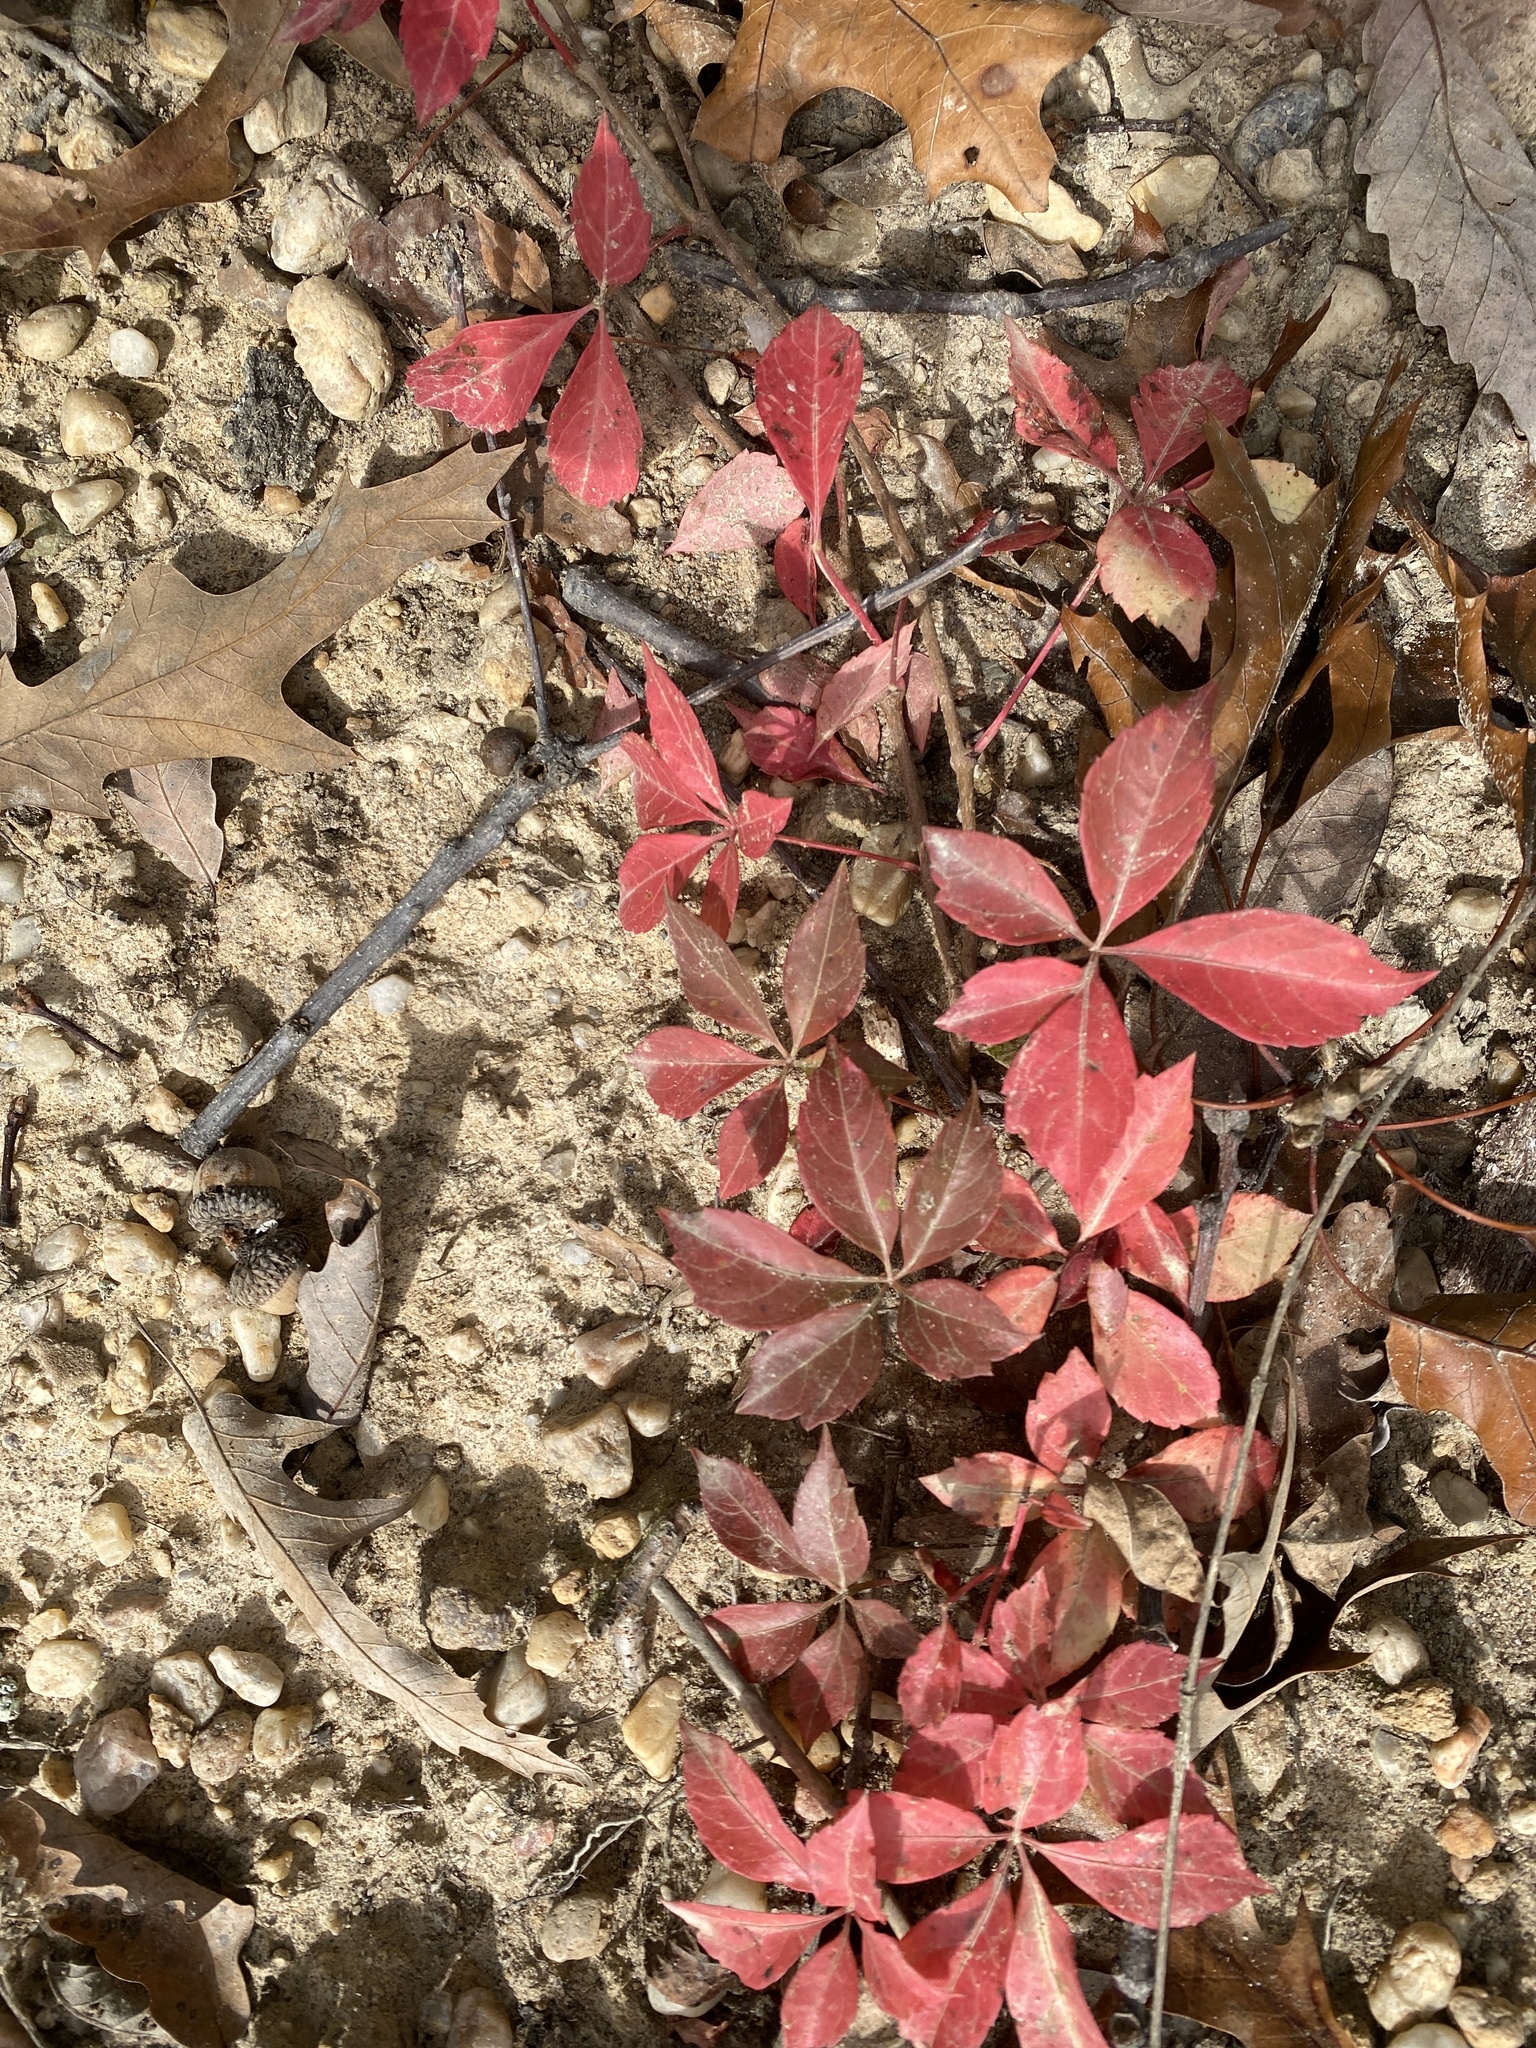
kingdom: Plantae
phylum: Tracheophyta
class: Magnoliopsida
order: Vitales
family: Vitaceae
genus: Parthenocissus
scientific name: Parthenocissus quinquefolia
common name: Virginia-creeper
